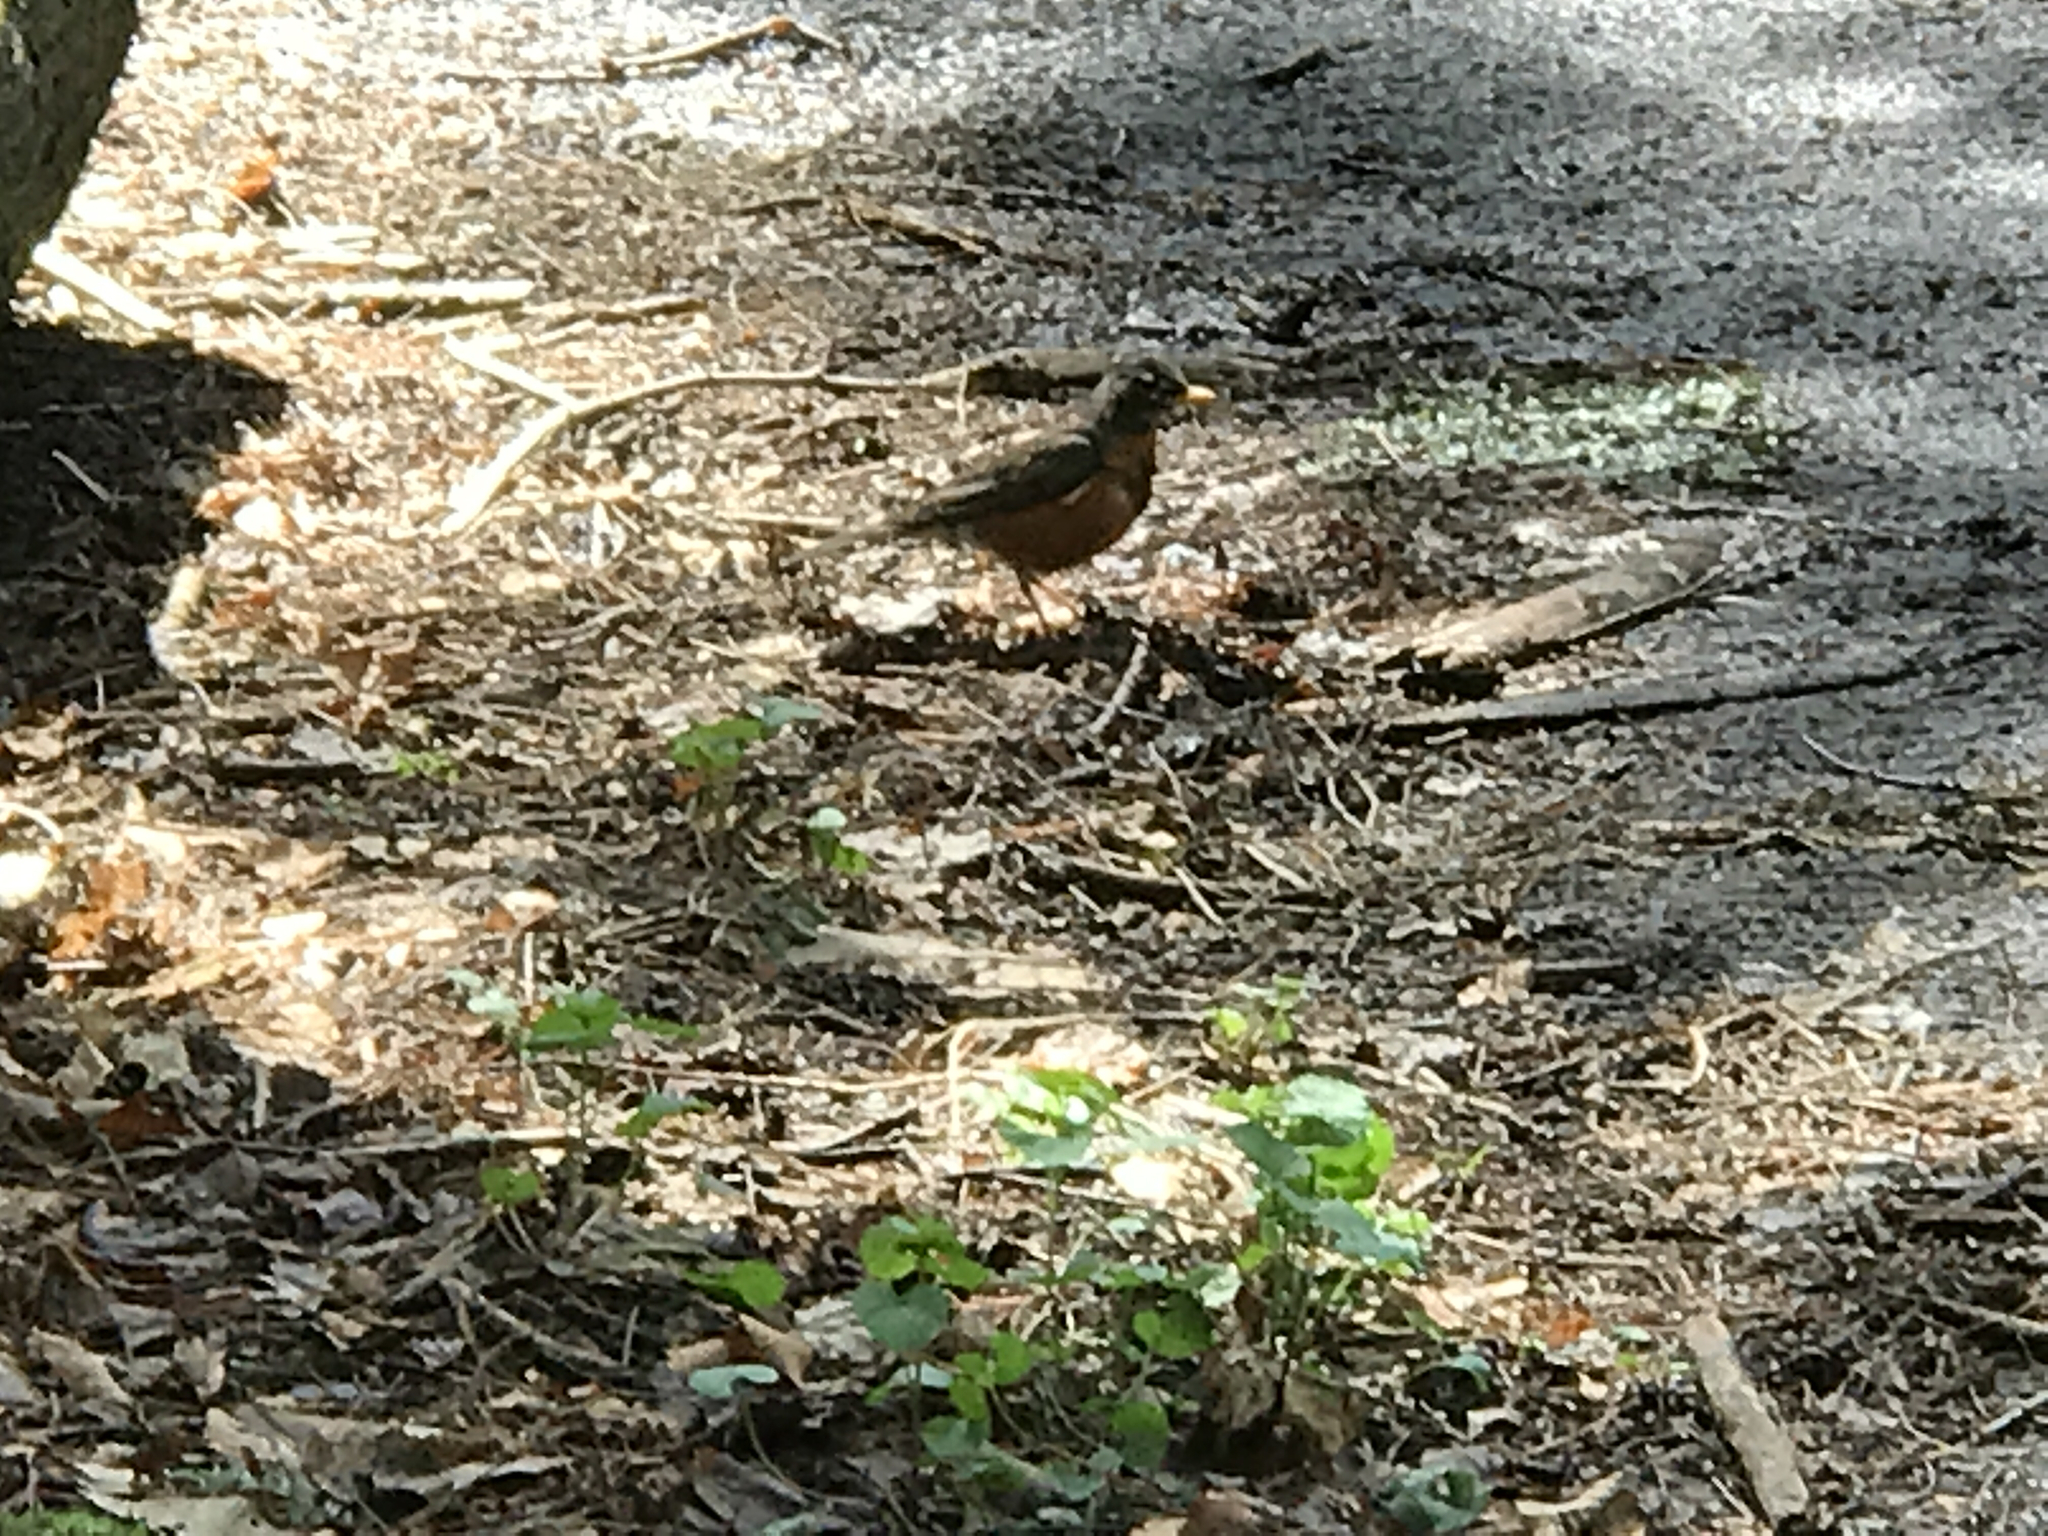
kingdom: Animalia
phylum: Chordata
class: Aves
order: Passeriformes
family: Turdidae
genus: Turdus
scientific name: Turdus migratorius
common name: American robin
